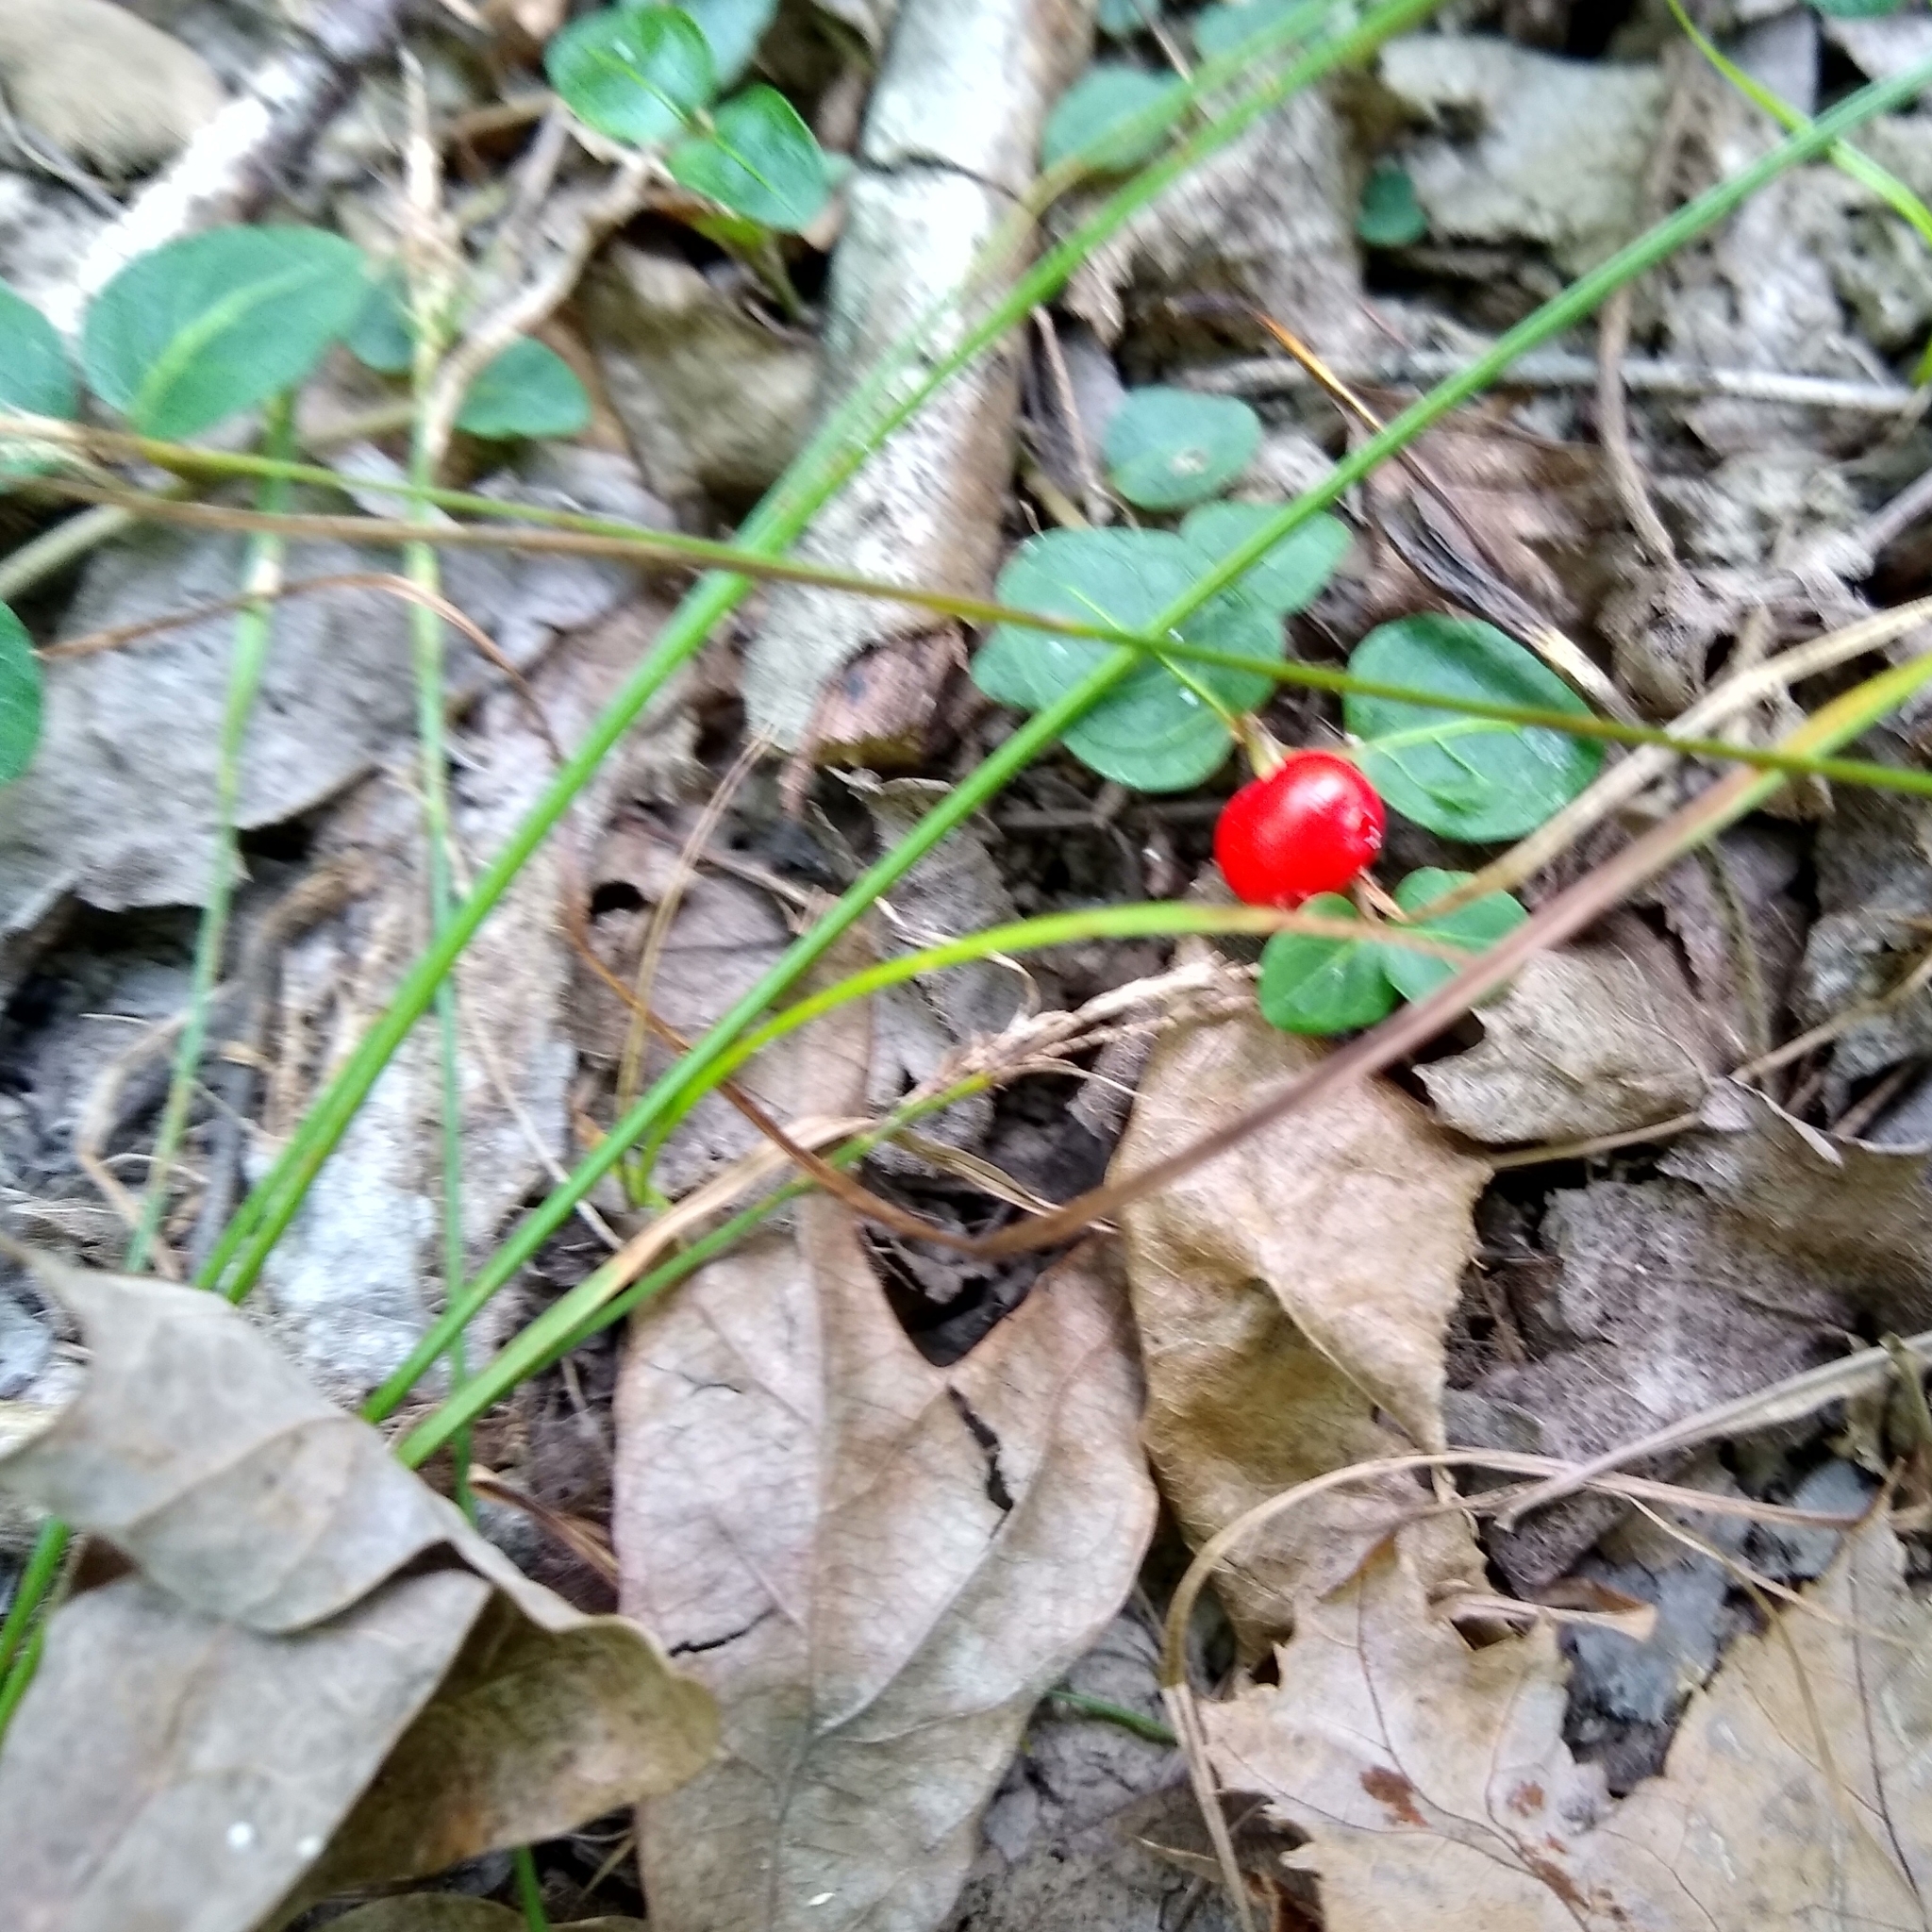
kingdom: Plantae
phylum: Tracheophyta
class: Magnoliopsida
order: Gentianales
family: Rubiaceae
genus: Mitchella
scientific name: Mitchella repens
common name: Partridge-berry
